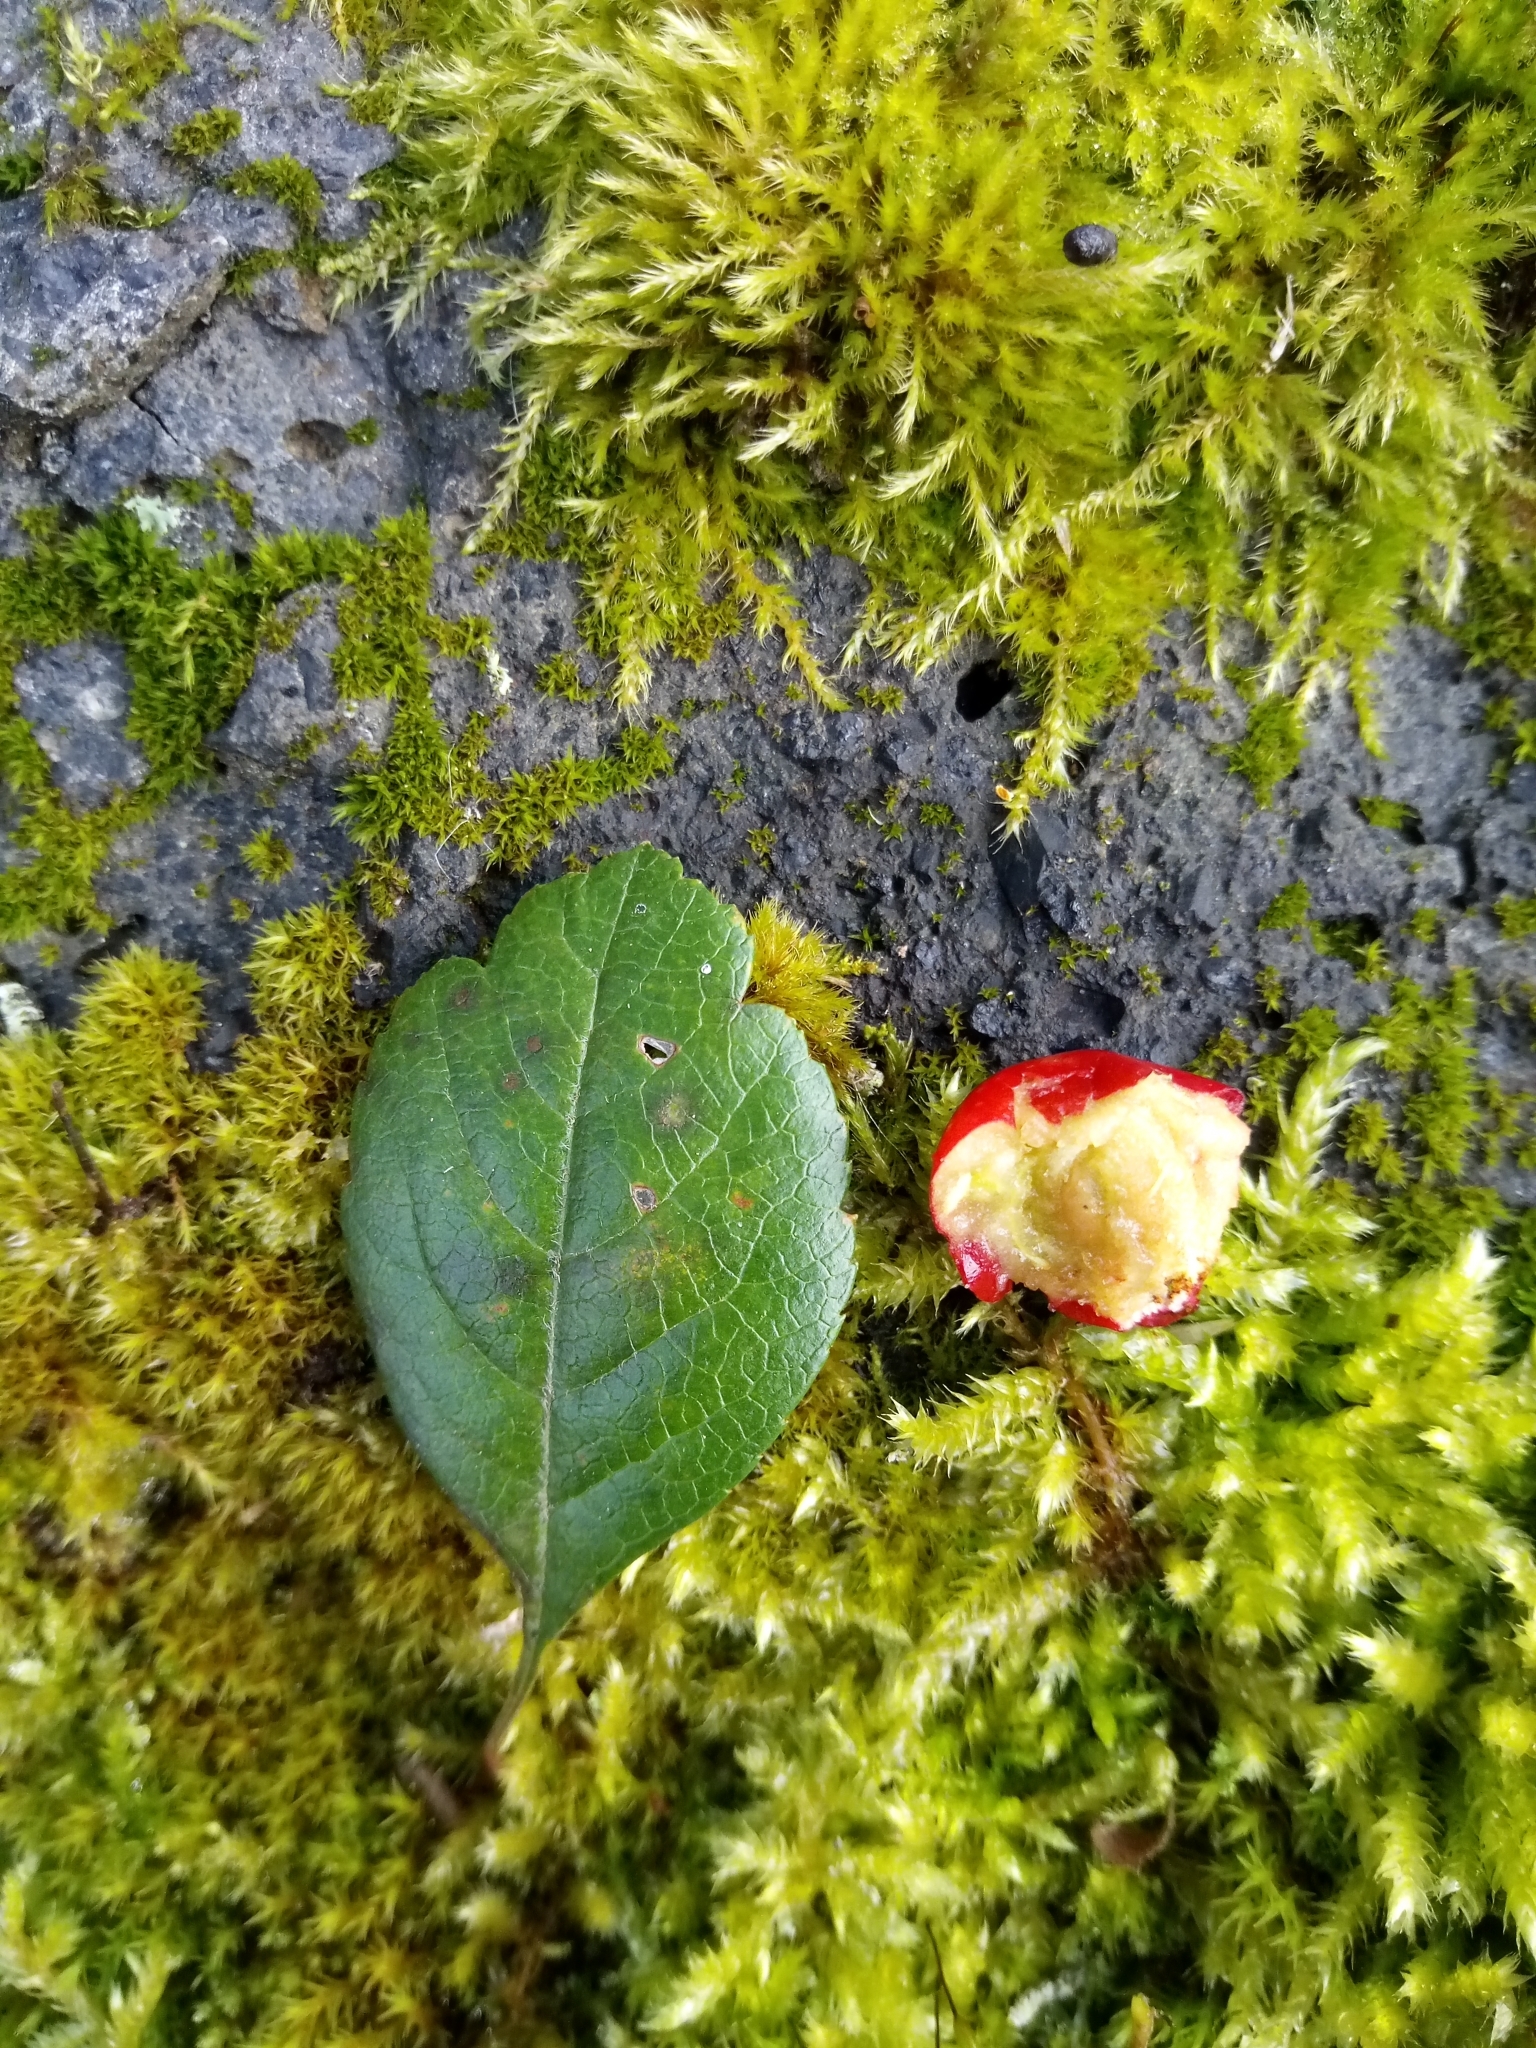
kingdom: Plantae
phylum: Tracheophyta
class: Magnoliopsida
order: Rosales
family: Rosaceae
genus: Crataegus
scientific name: Crataegus laevigata
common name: Midland hawthorn
